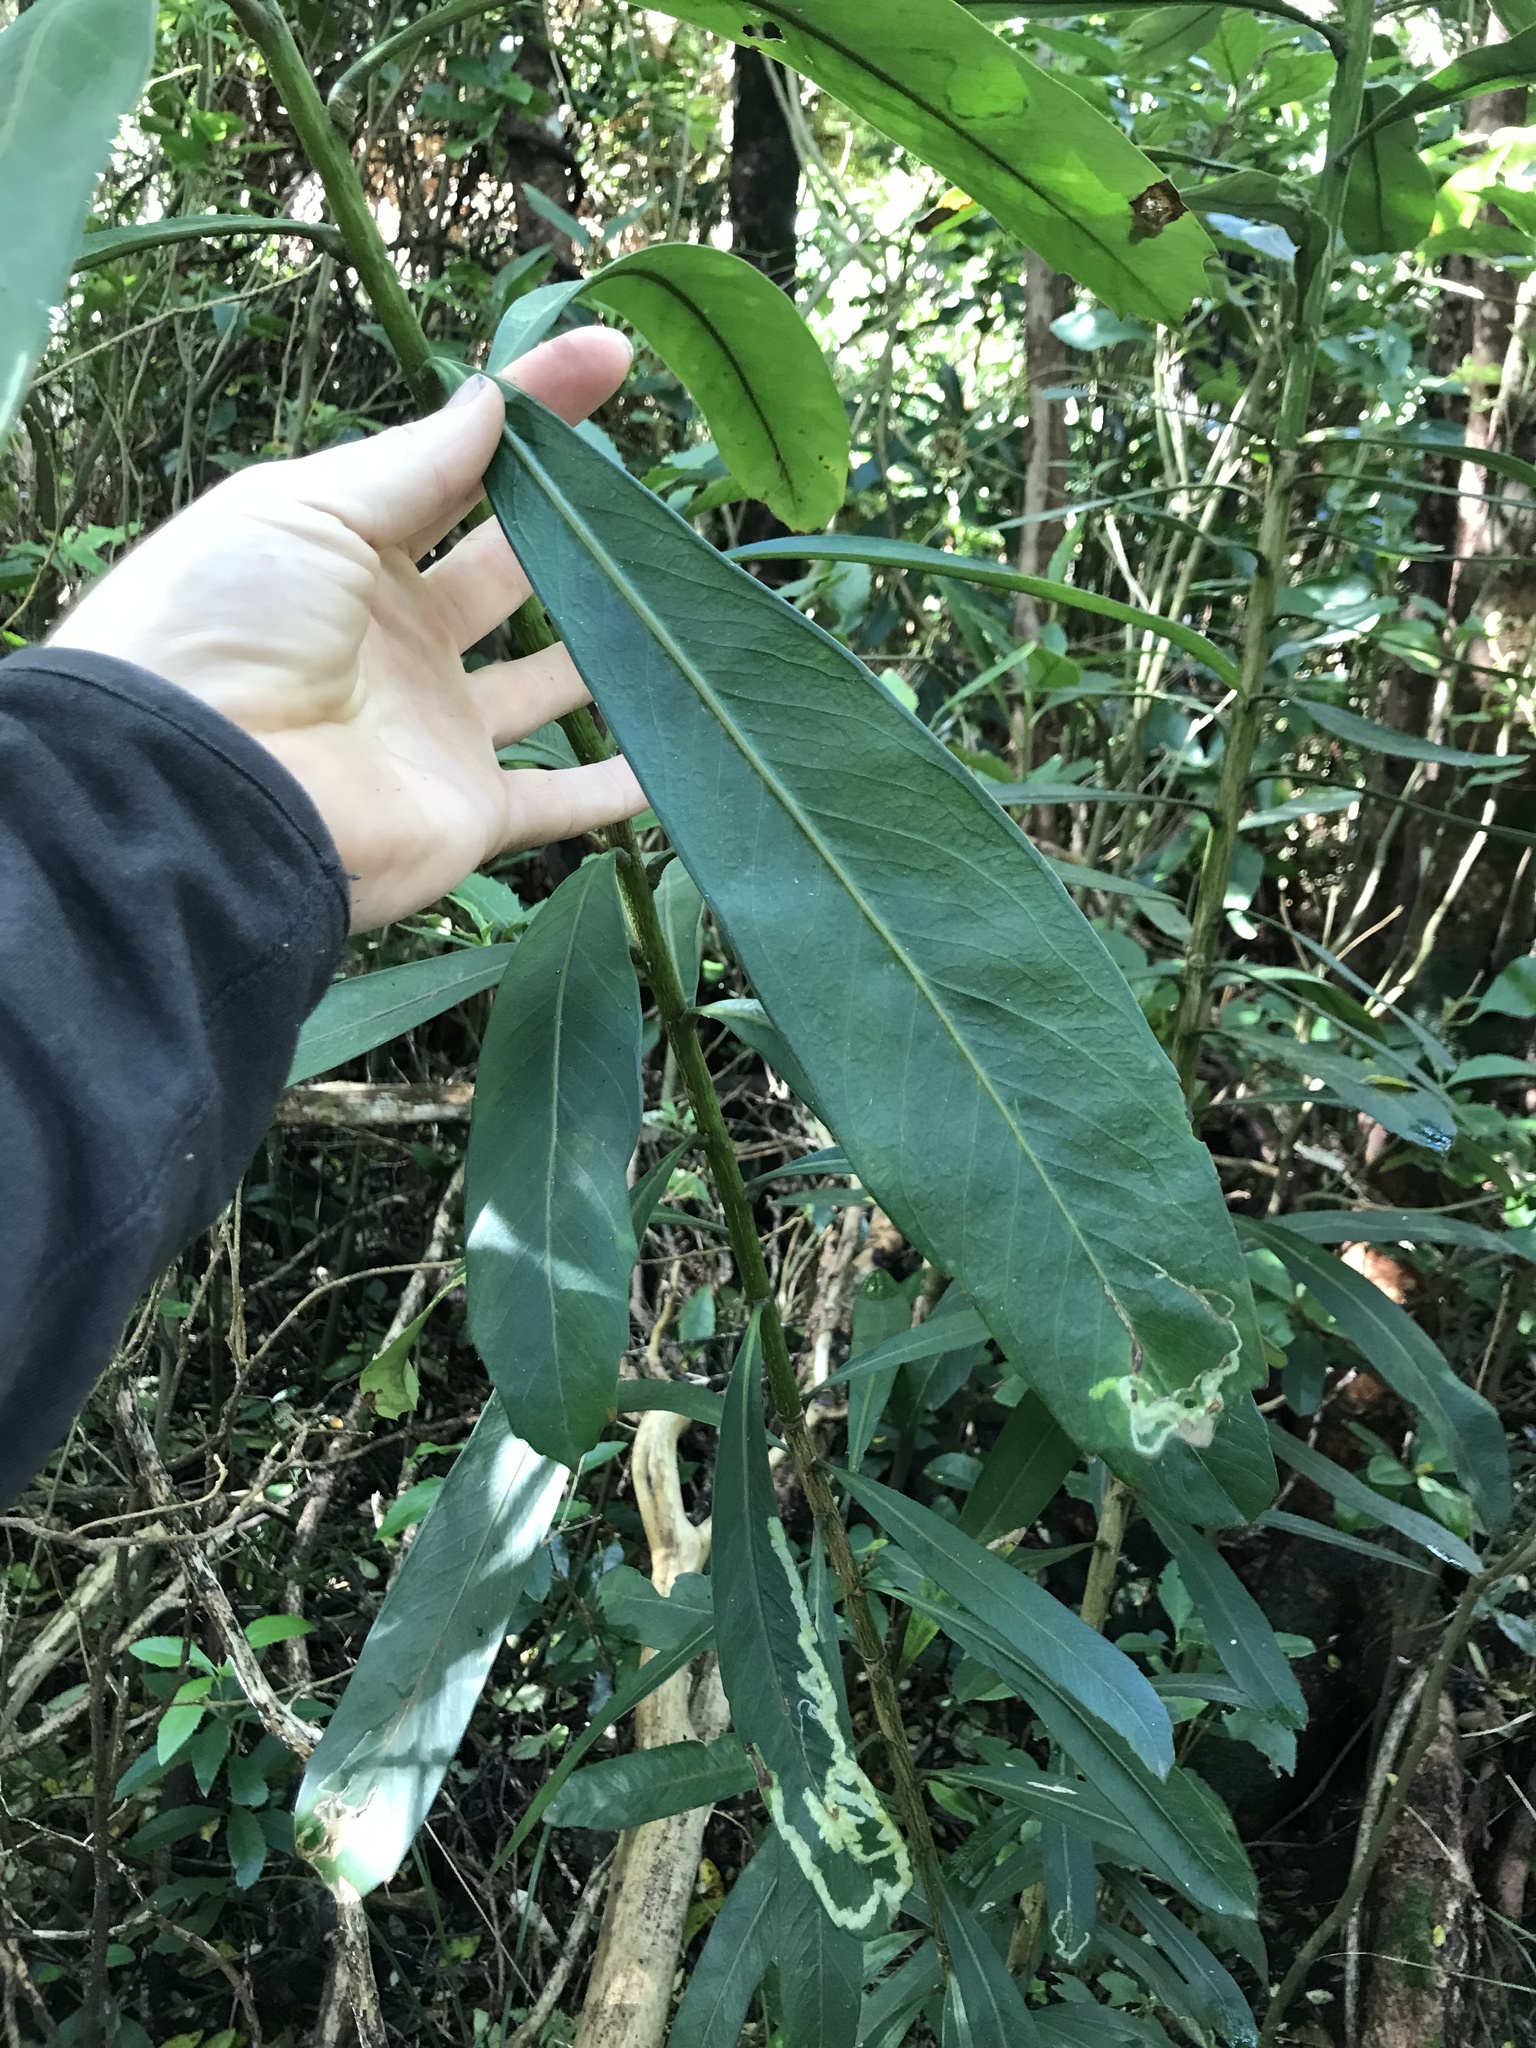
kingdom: Plantae
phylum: Tracheophyta
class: Magnoliopsida
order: Apiales
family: Araliaceae
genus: Pseudopanax
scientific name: Pseudopanax chathamicus
